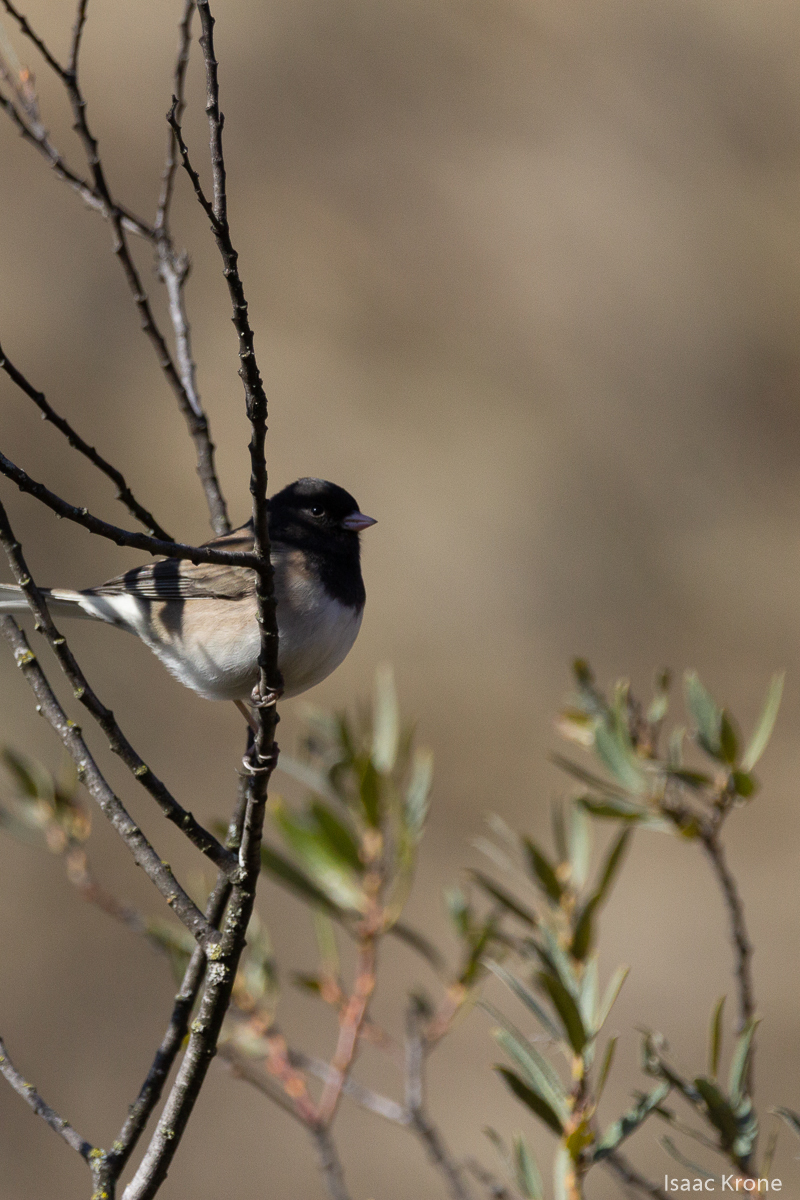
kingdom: Animalia
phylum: Chordata
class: Aves
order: Passeriformes
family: Passerellidae
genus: Junco
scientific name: Junco hyemalis
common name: Dark-eyed junco
